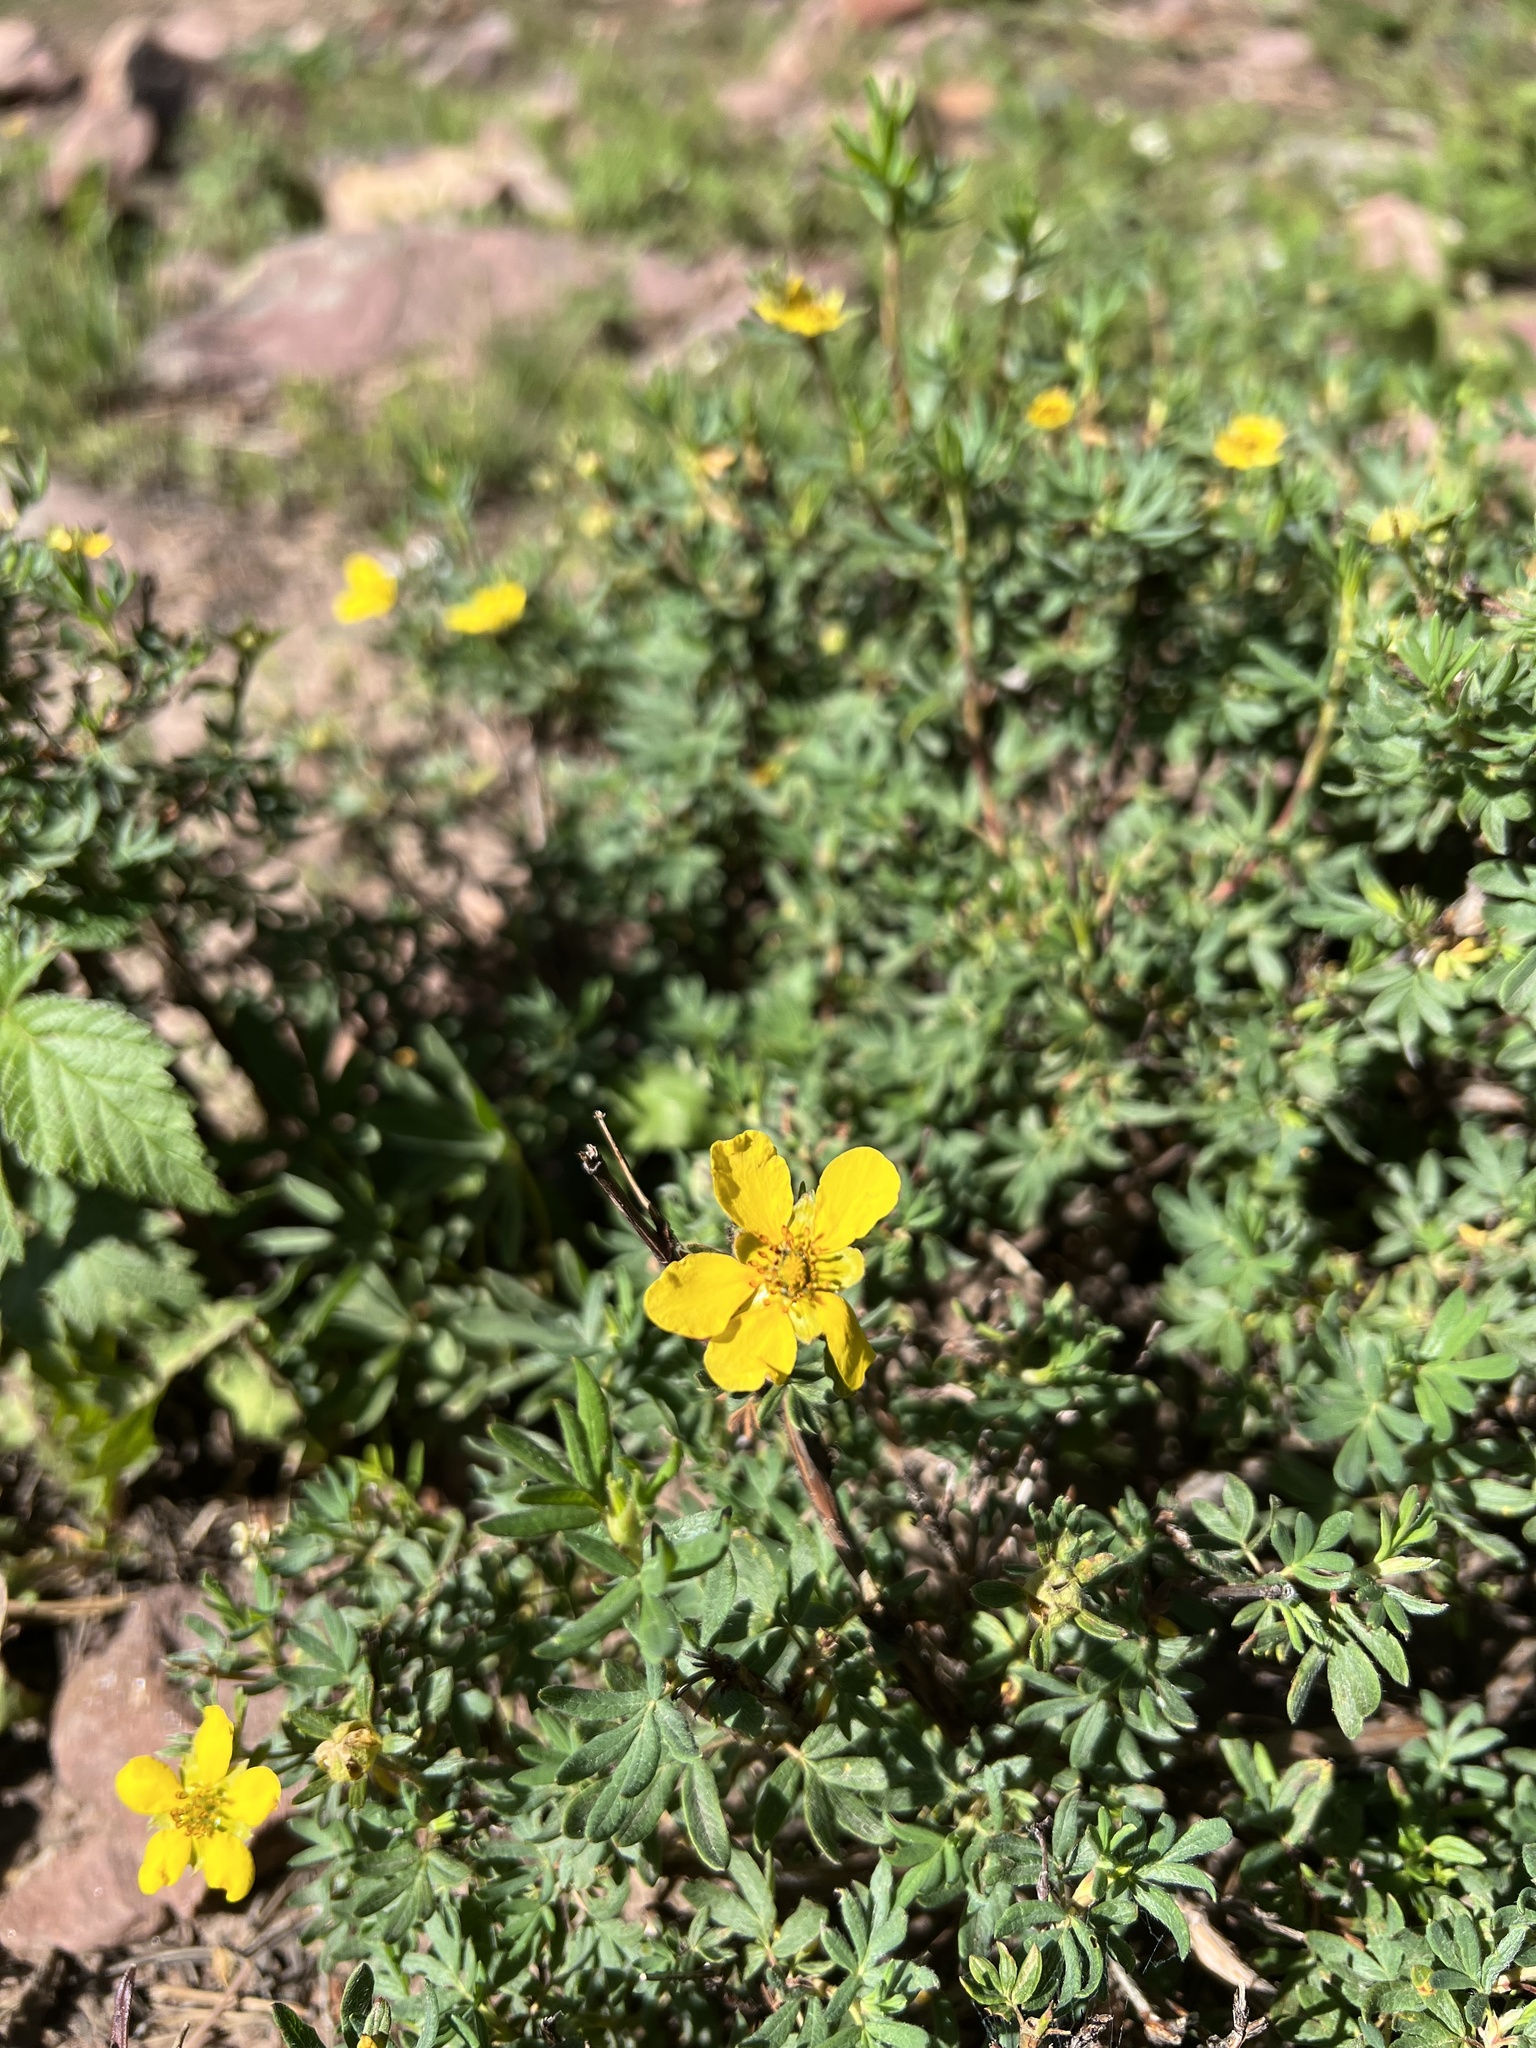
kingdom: Plantae
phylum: Tracheophyta
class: Magnoliopsida
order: Rosales
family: Rosaceae
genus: Dasiphora
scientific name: Dasiphora fruticosa
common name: Shrubby cinquefoil
